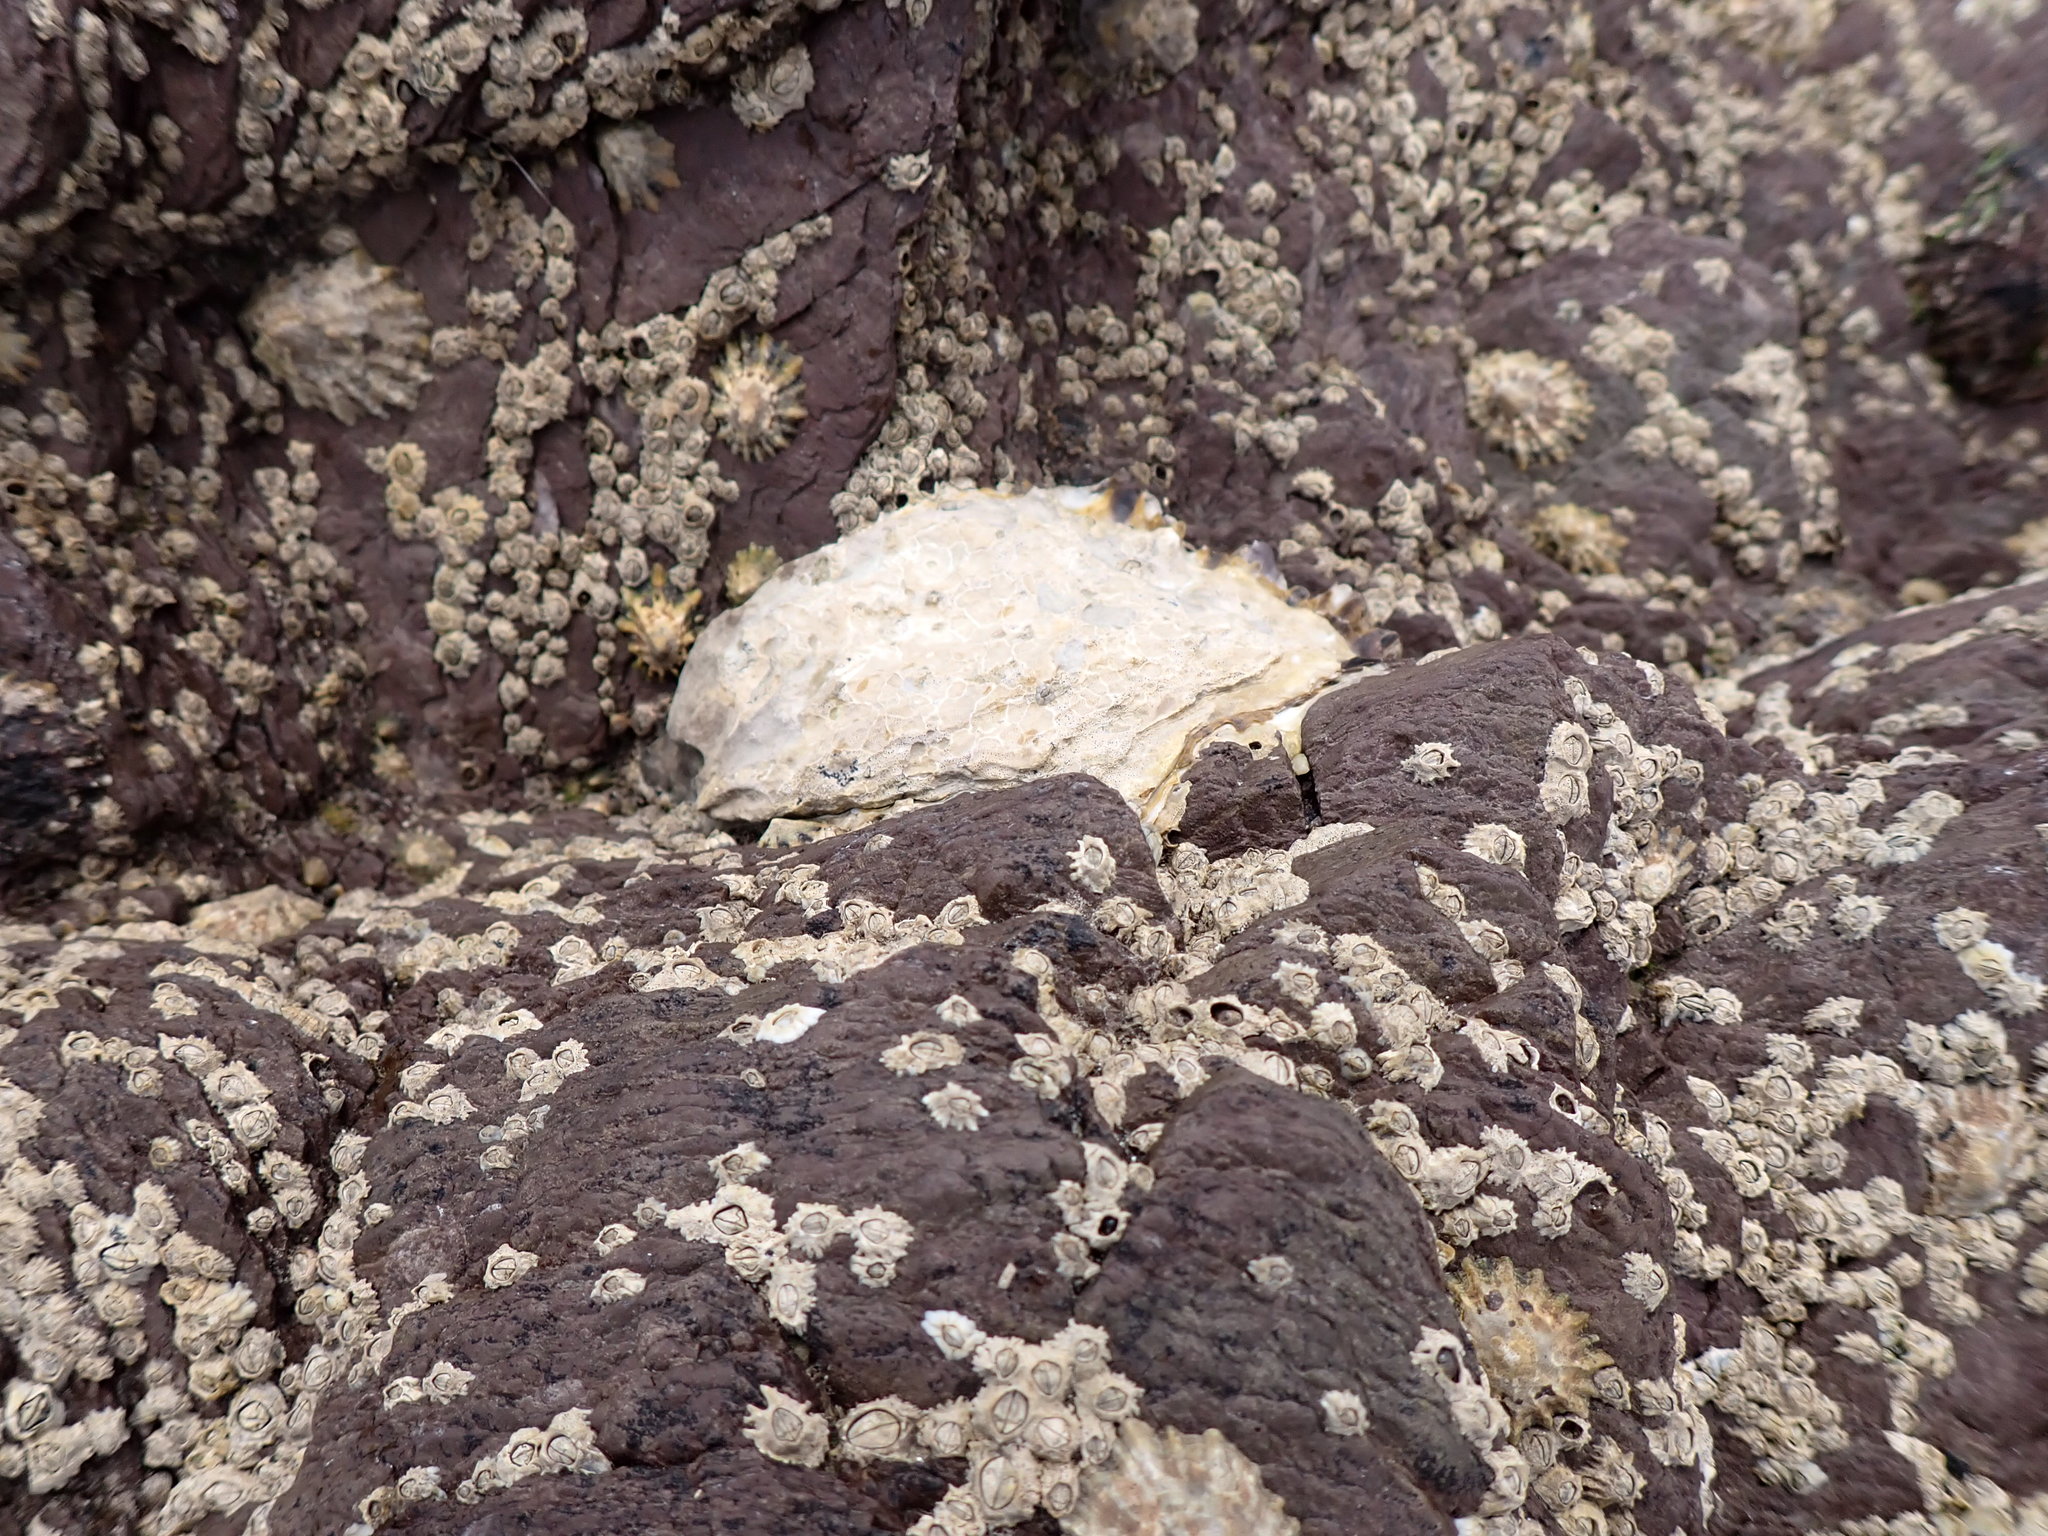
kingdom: Animalia
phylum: Mollusca
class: Bivalvia
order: Ostreida
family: Ostreidae
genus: Magallana
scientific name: Magallana gigas
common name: Pacific oyster
